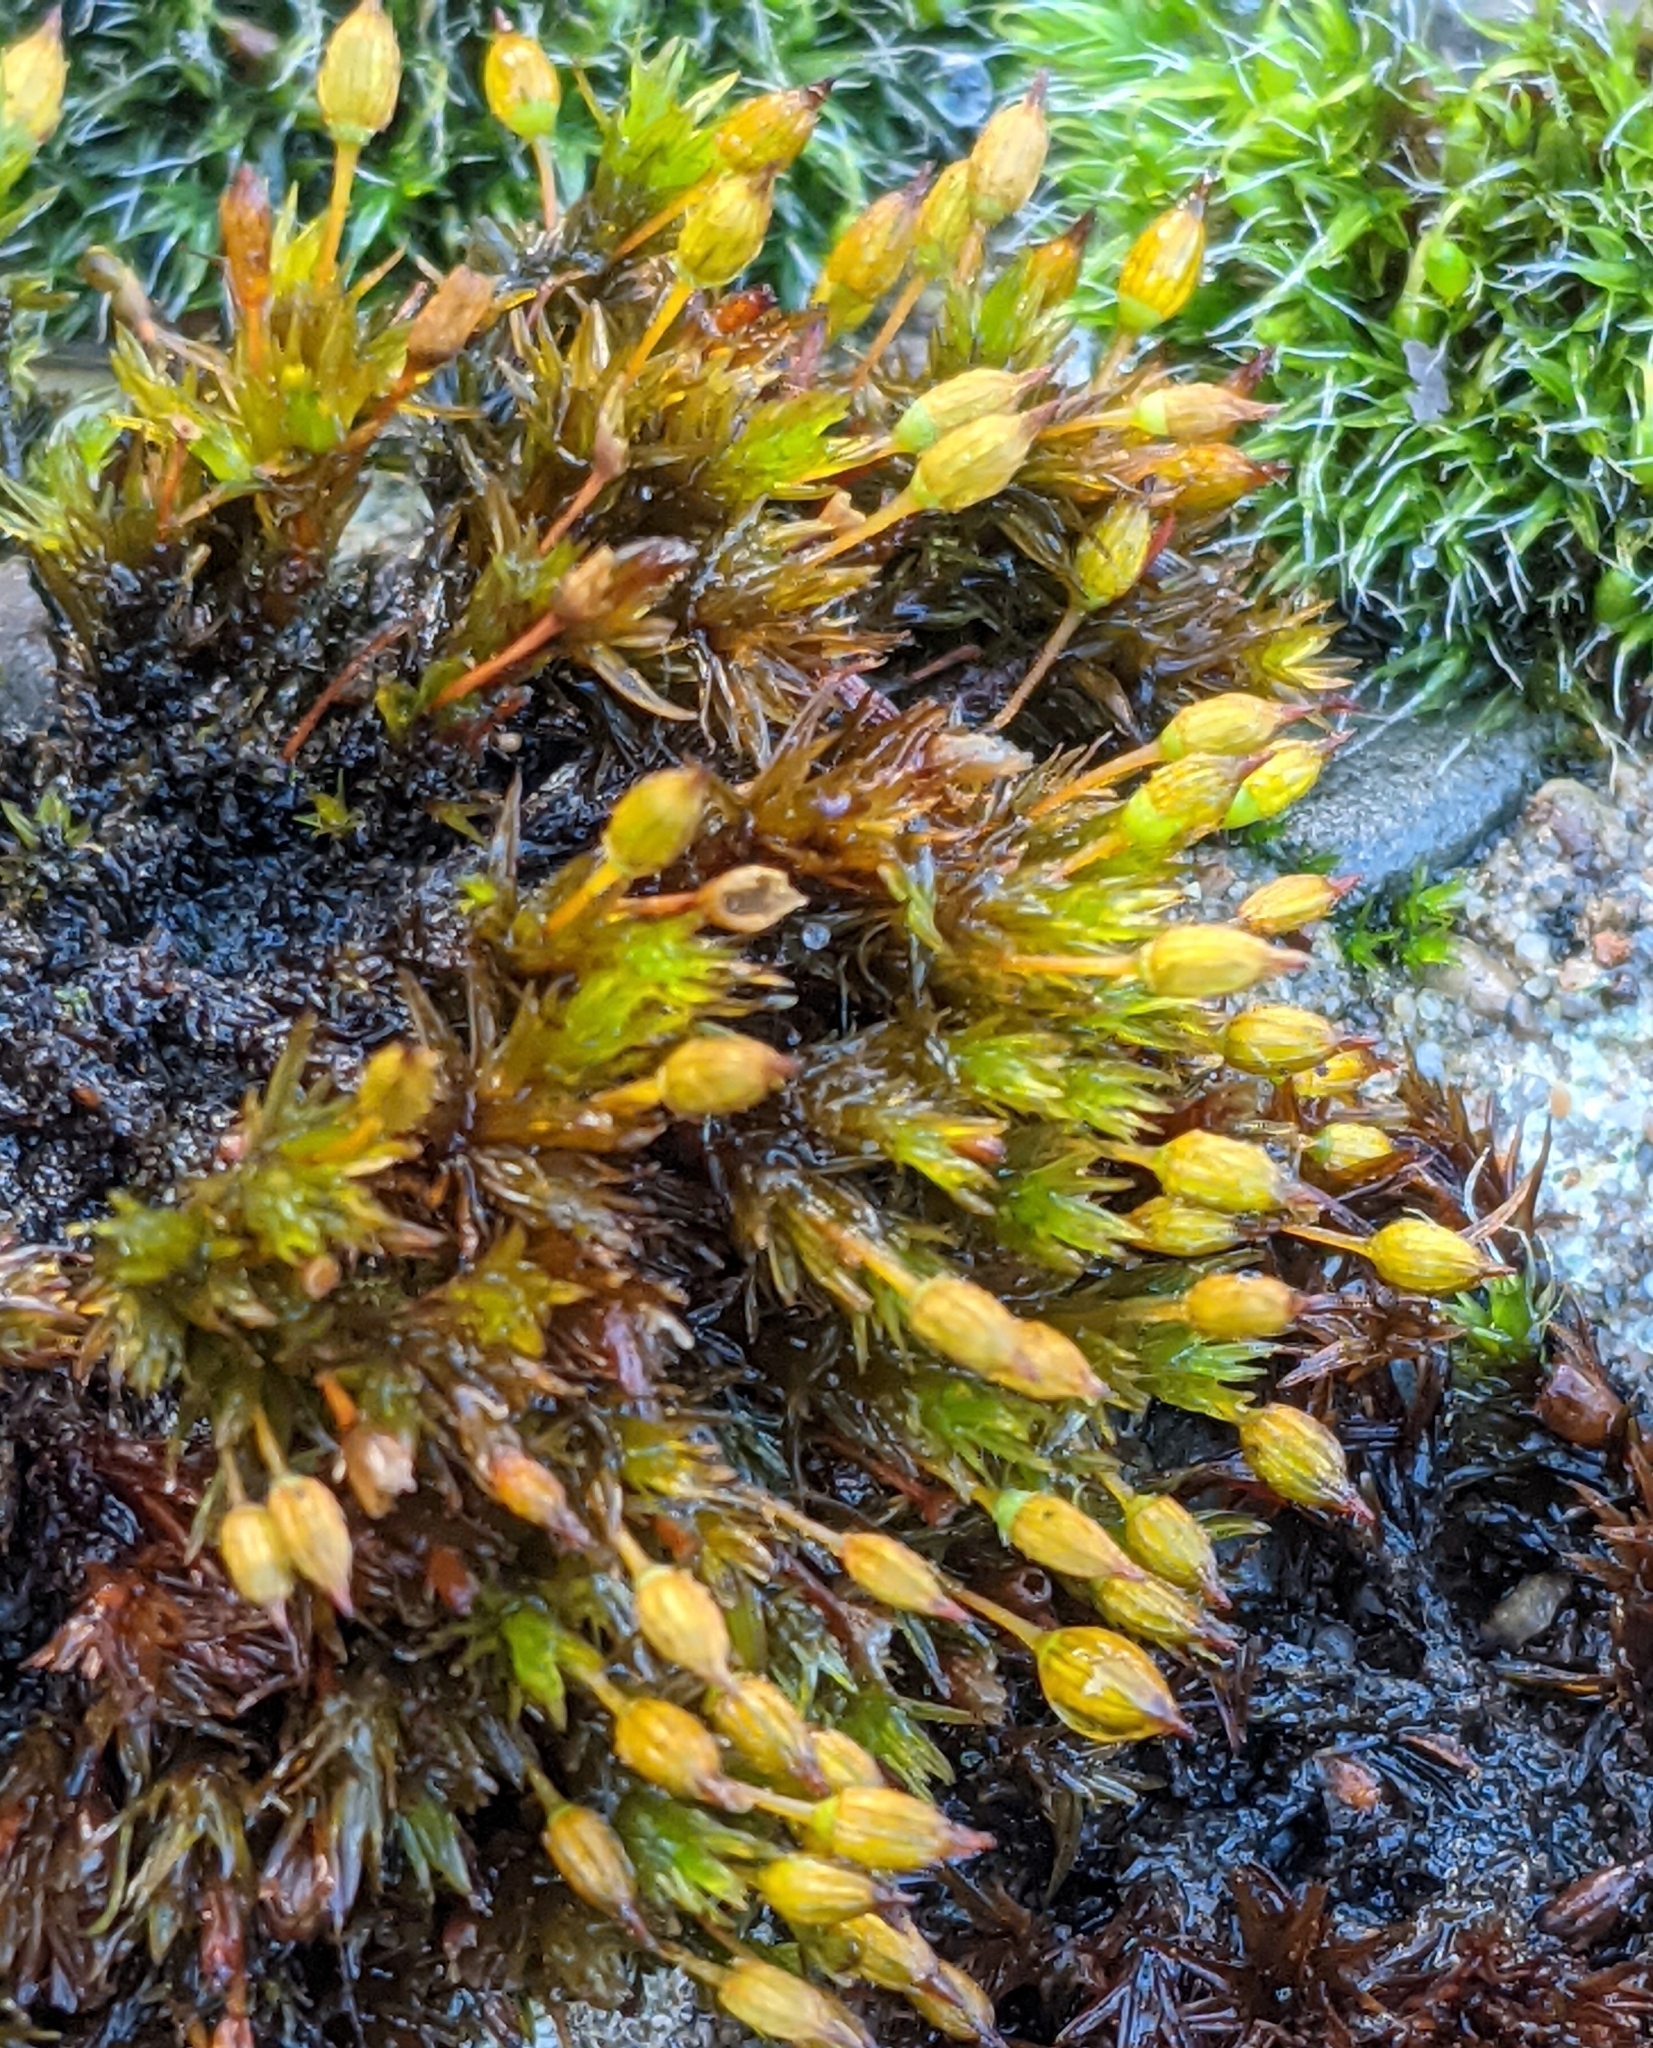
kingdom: Plantae
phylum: Bryophyta
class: Bryopsida
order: Orthotrichales
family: Orthotrichaceae
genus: Orthotrichum
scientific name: Orthotrichum anomalum
